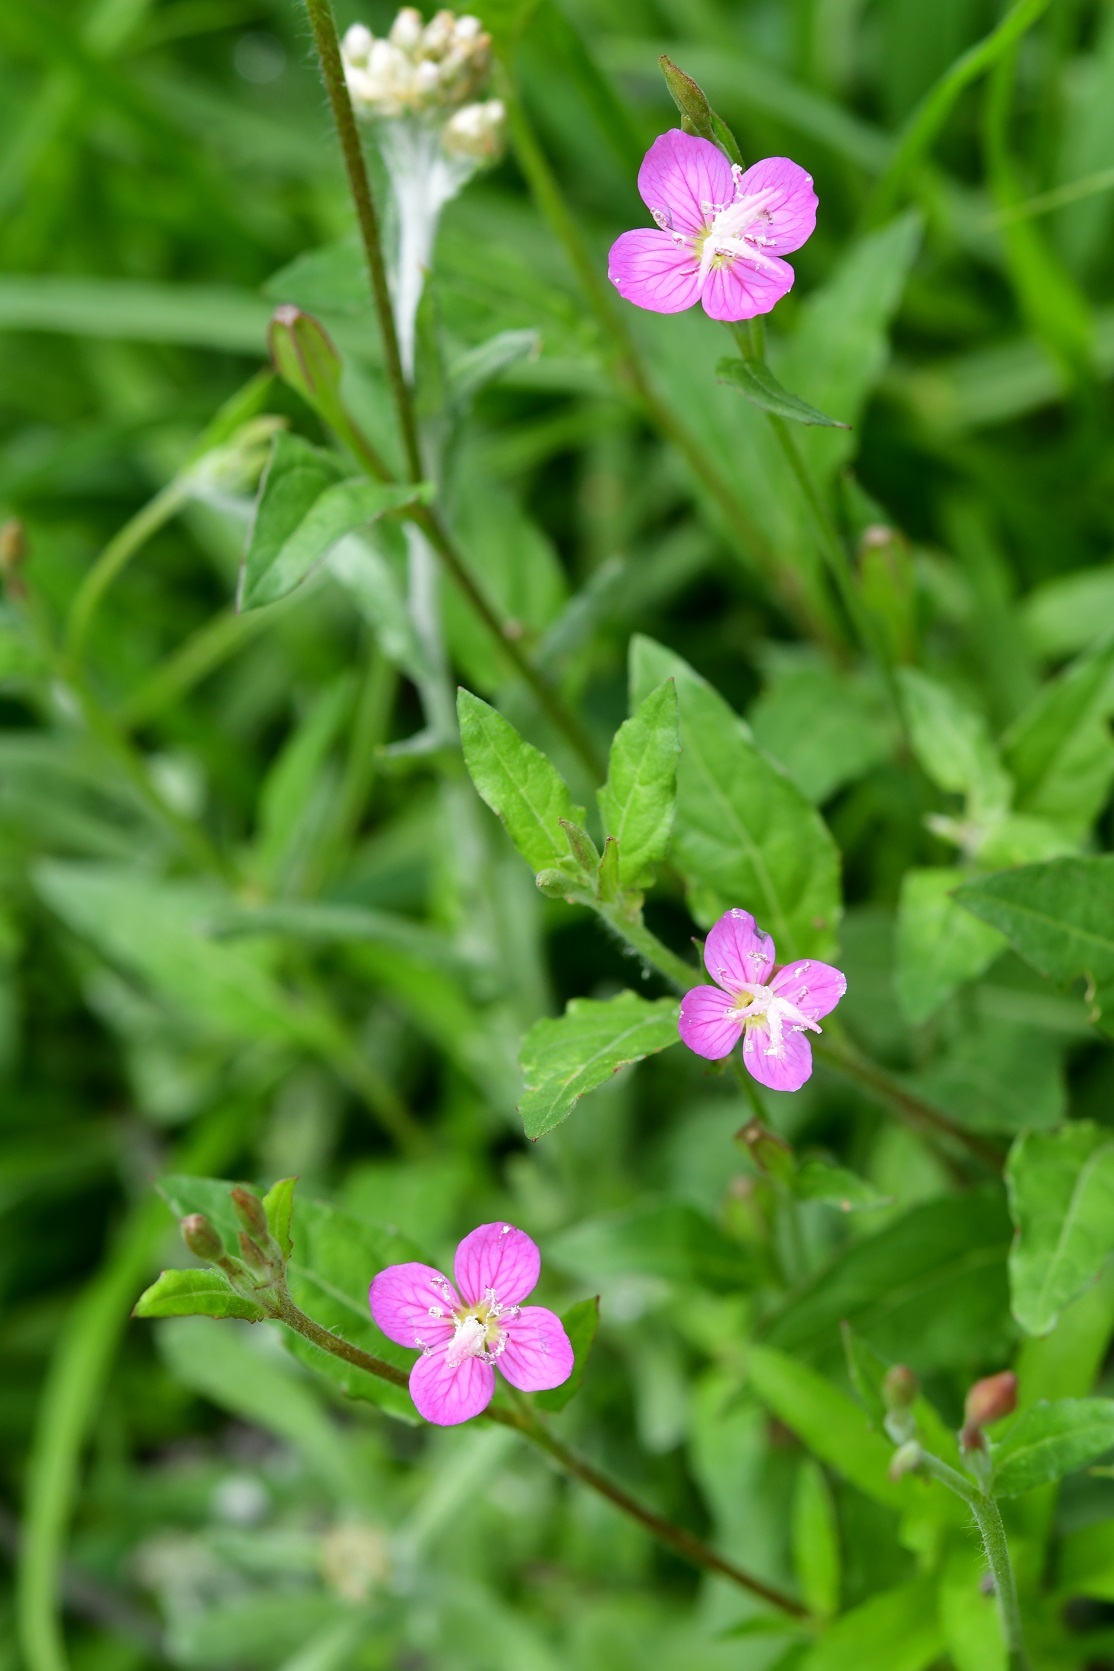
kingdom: Plantae
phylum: Tracheophyta
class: Magnoliopsida
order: Myrtales
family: Onagraceae
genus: Oenothera
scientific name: Oenothera rosea
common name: Rosy evening-primrose
